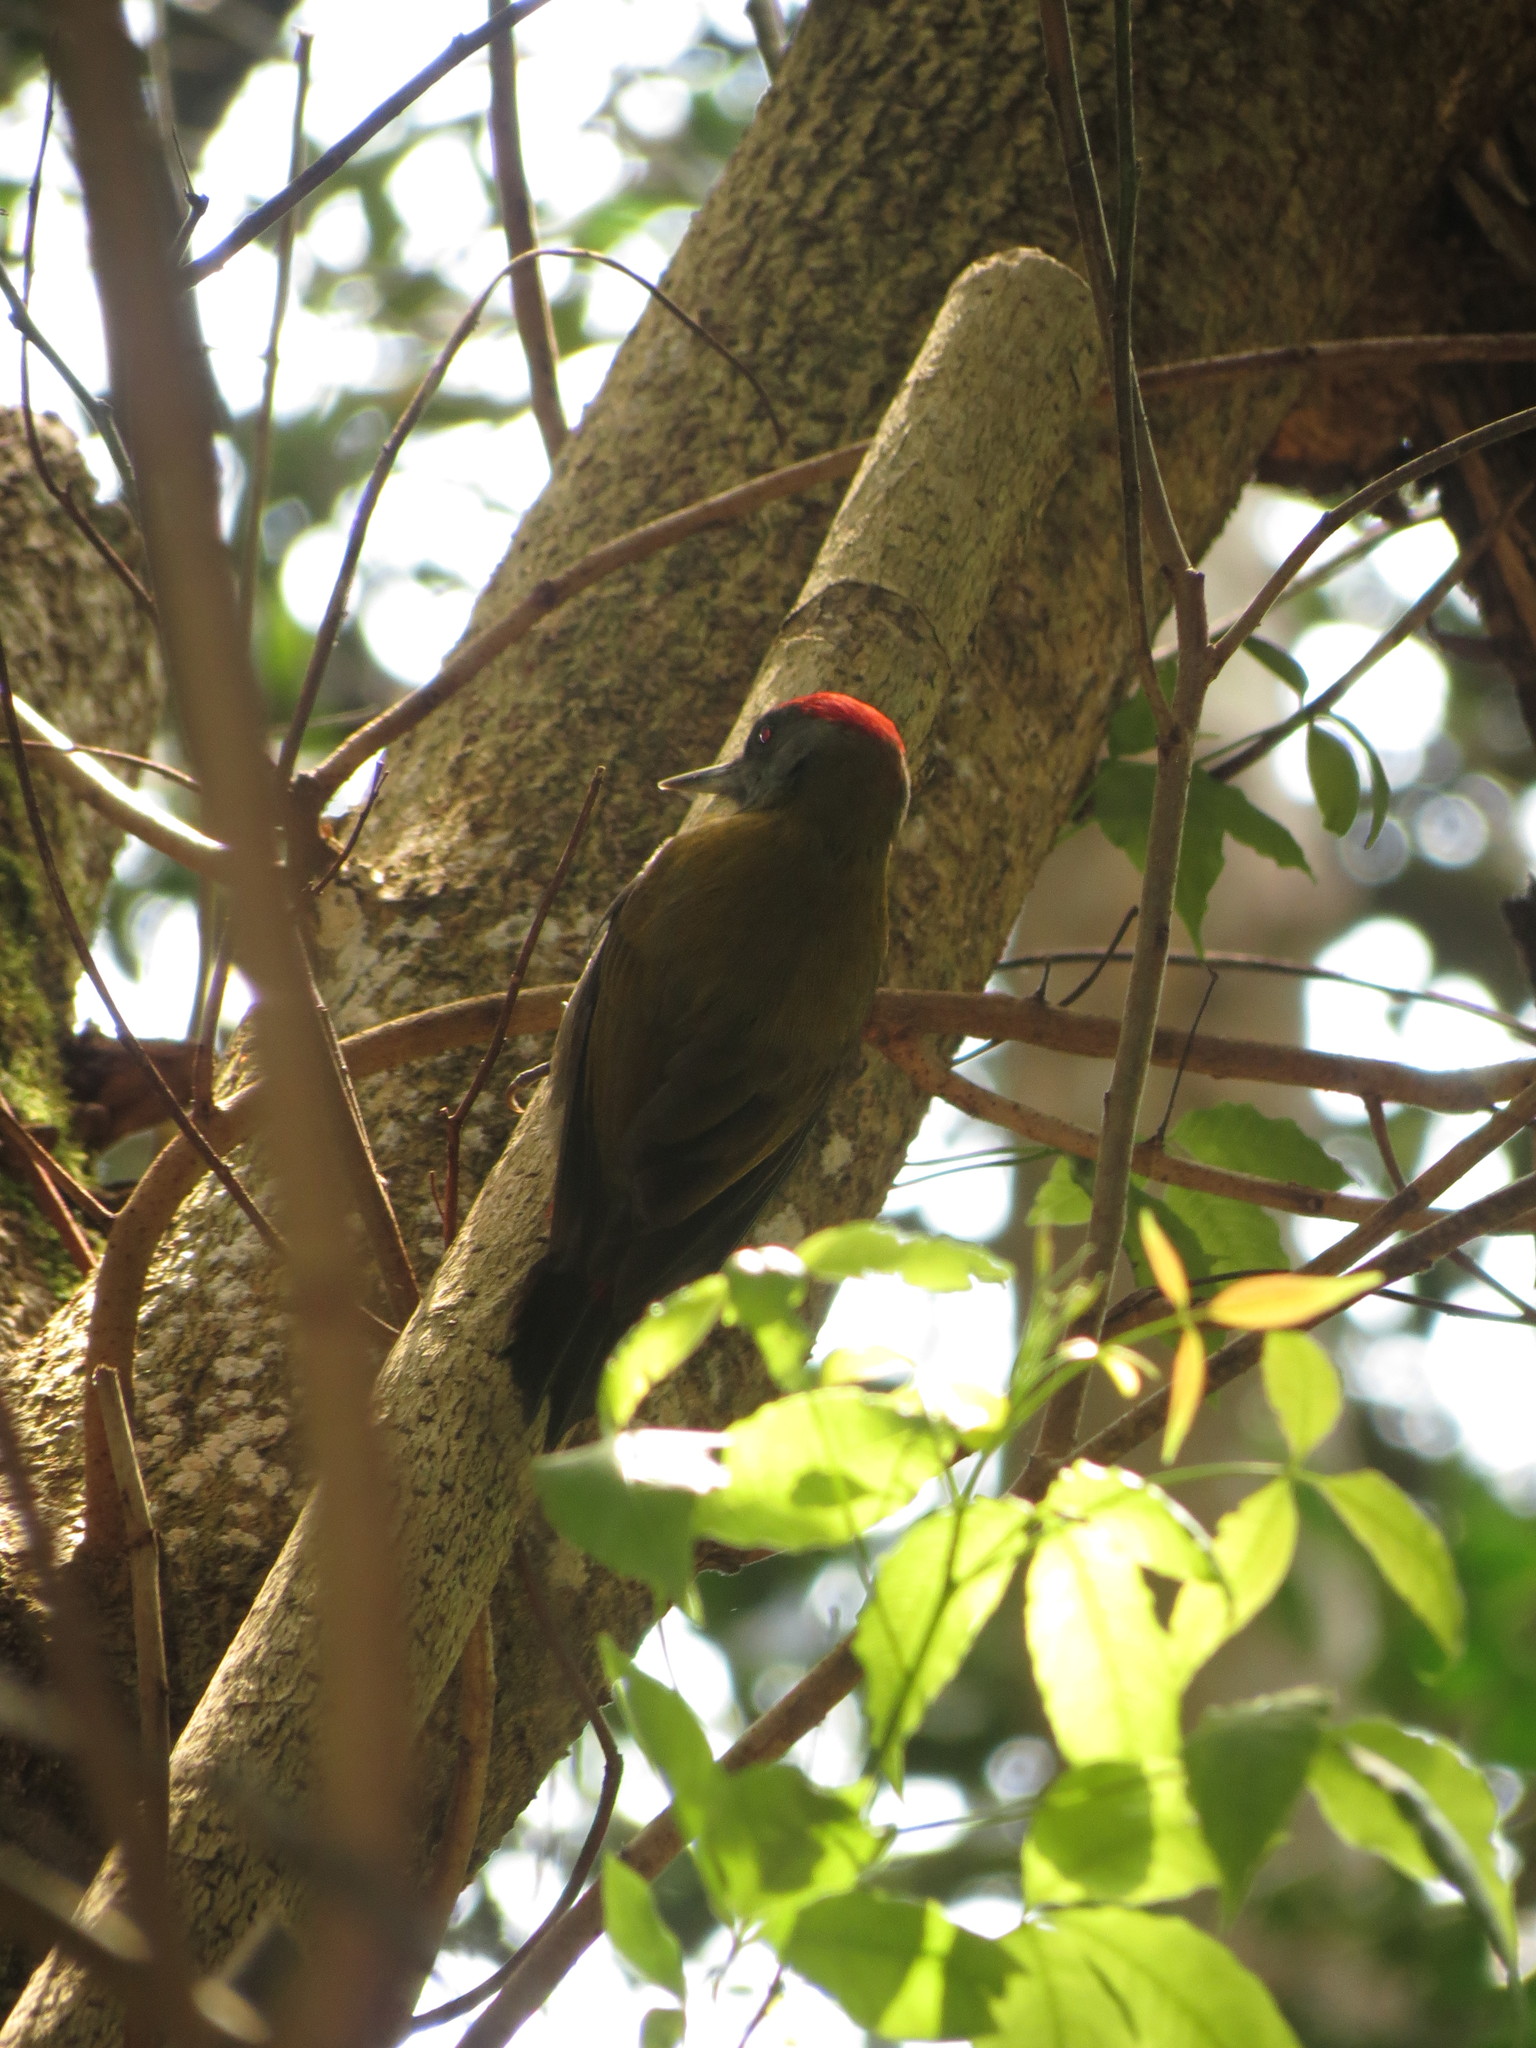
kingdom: Animalia
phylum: Chordata
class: Aves
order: Piciformes
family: Picidae
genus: Dendropicos
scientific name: Dendropicos griseocephalus
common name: Olive woodpecker
